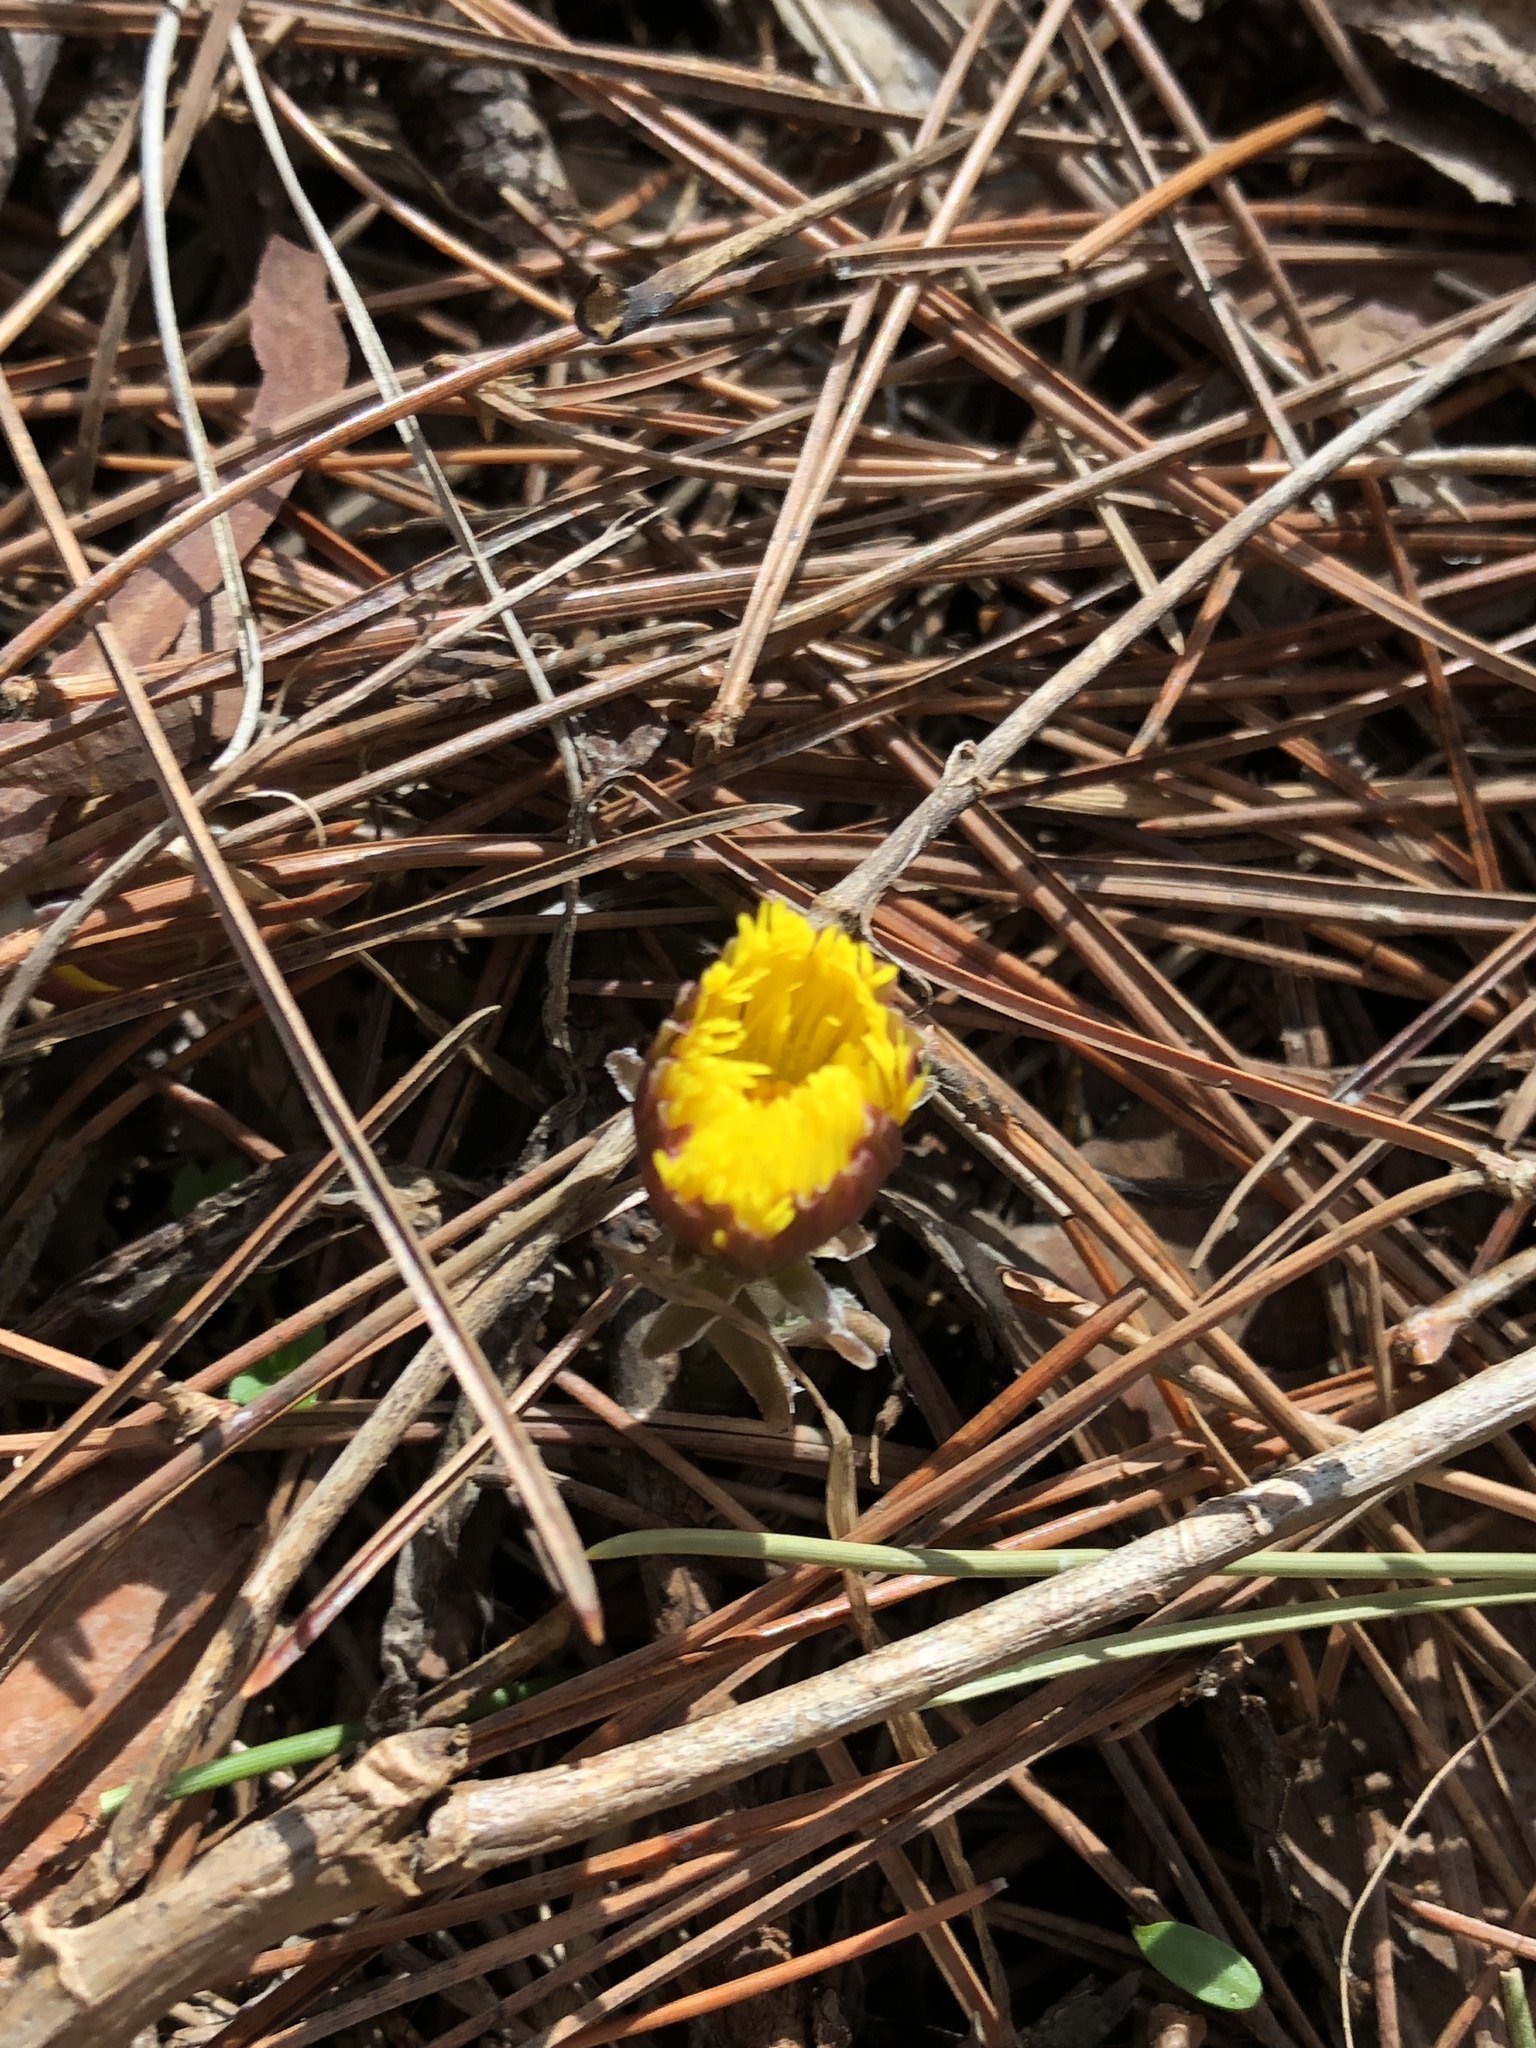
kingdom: Plantae
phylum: Tracheophyta
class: Magnoliopsida
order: Asterales
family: Asteraceae
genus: Tussilago
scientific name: Tussilago farfara
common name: Coltsfoot
